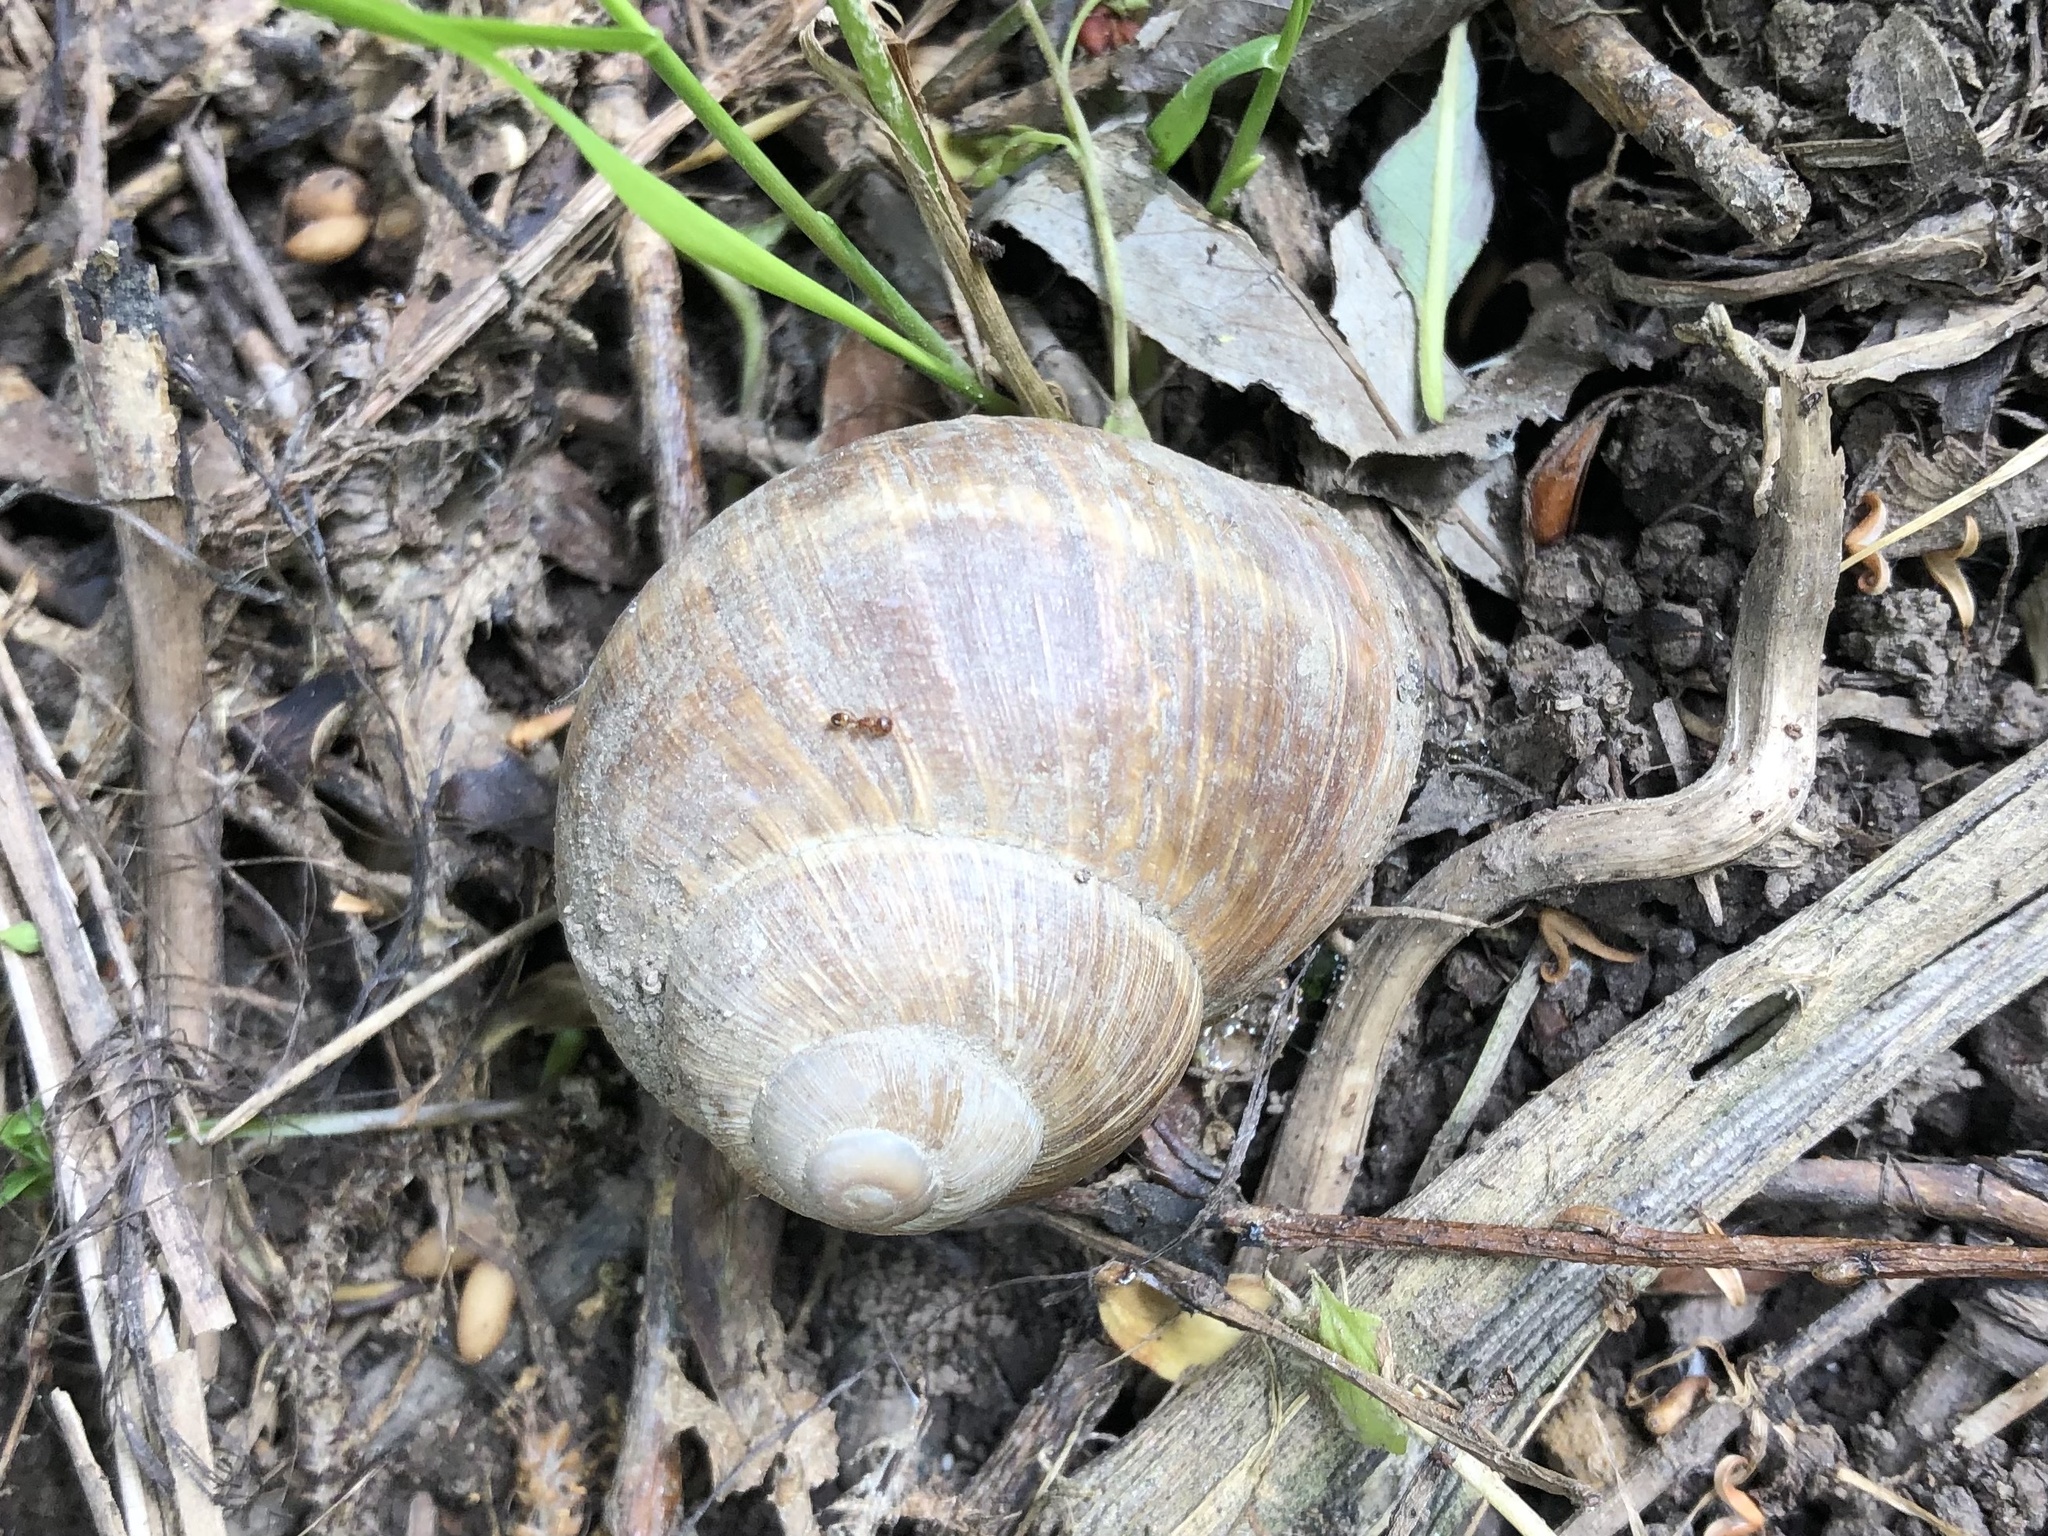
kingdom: Animalia
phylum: Mollusca
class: Gastropoda
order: Stylommatophora
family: Helicidae
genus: Helix
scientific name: Helix pomatia
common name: Roman snail
